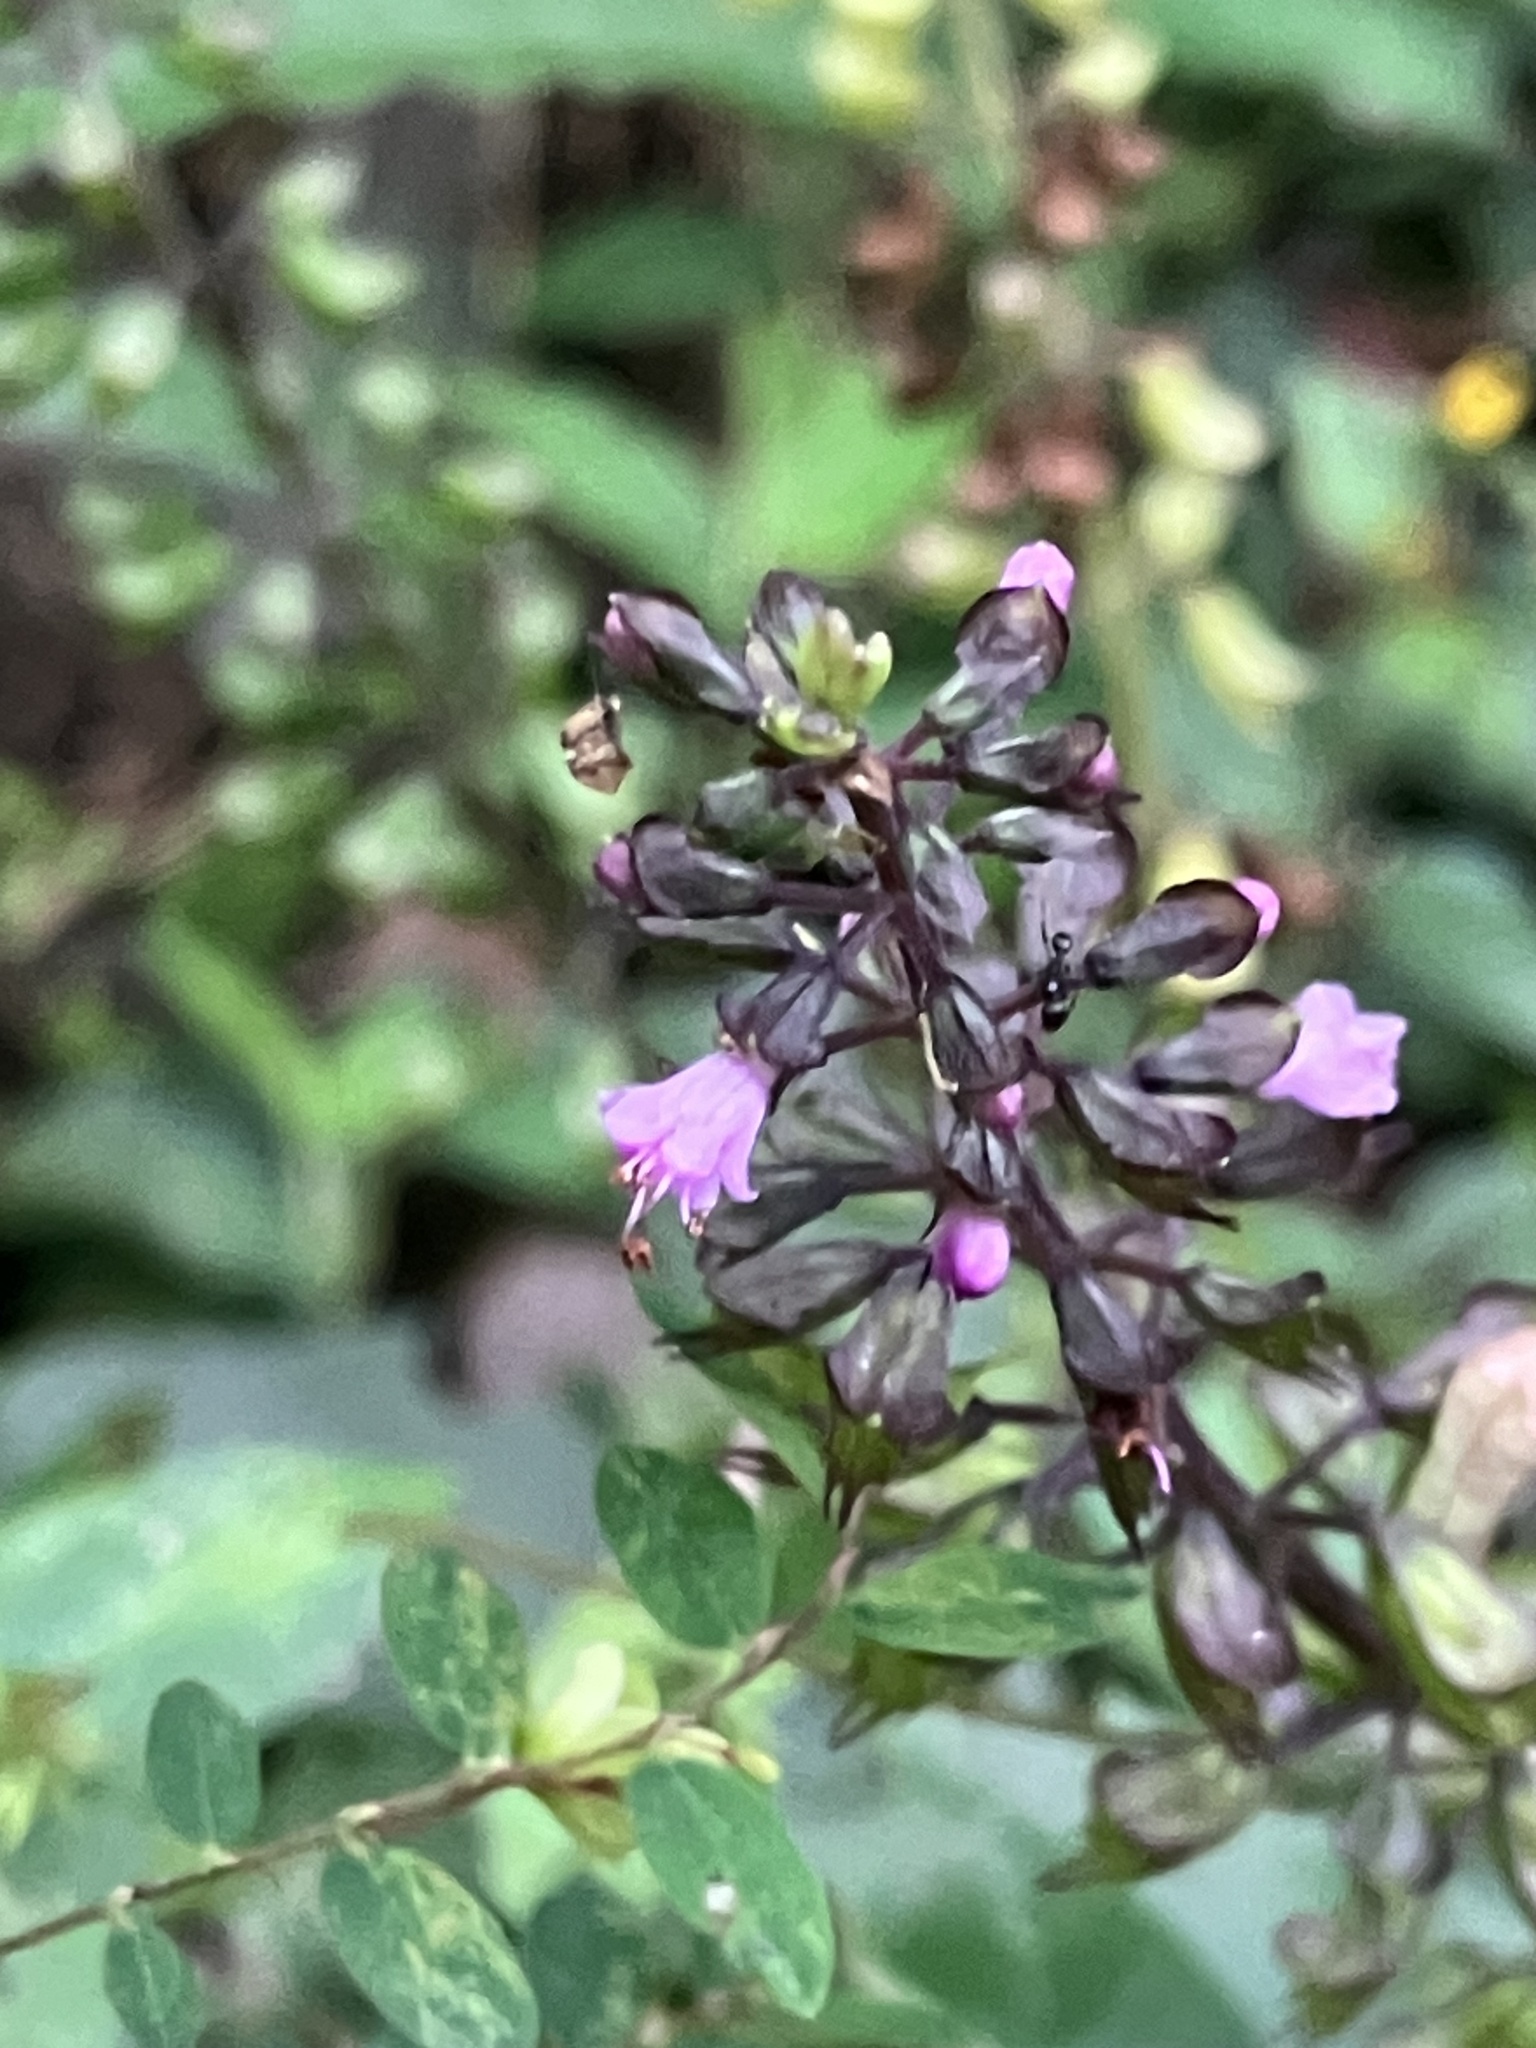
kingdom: Plantae
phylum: Tracheophyta
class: Magnoliopsida
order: Lamiales
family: Lamiaceae
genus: Ocimum
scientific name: Ocimum carnosum
